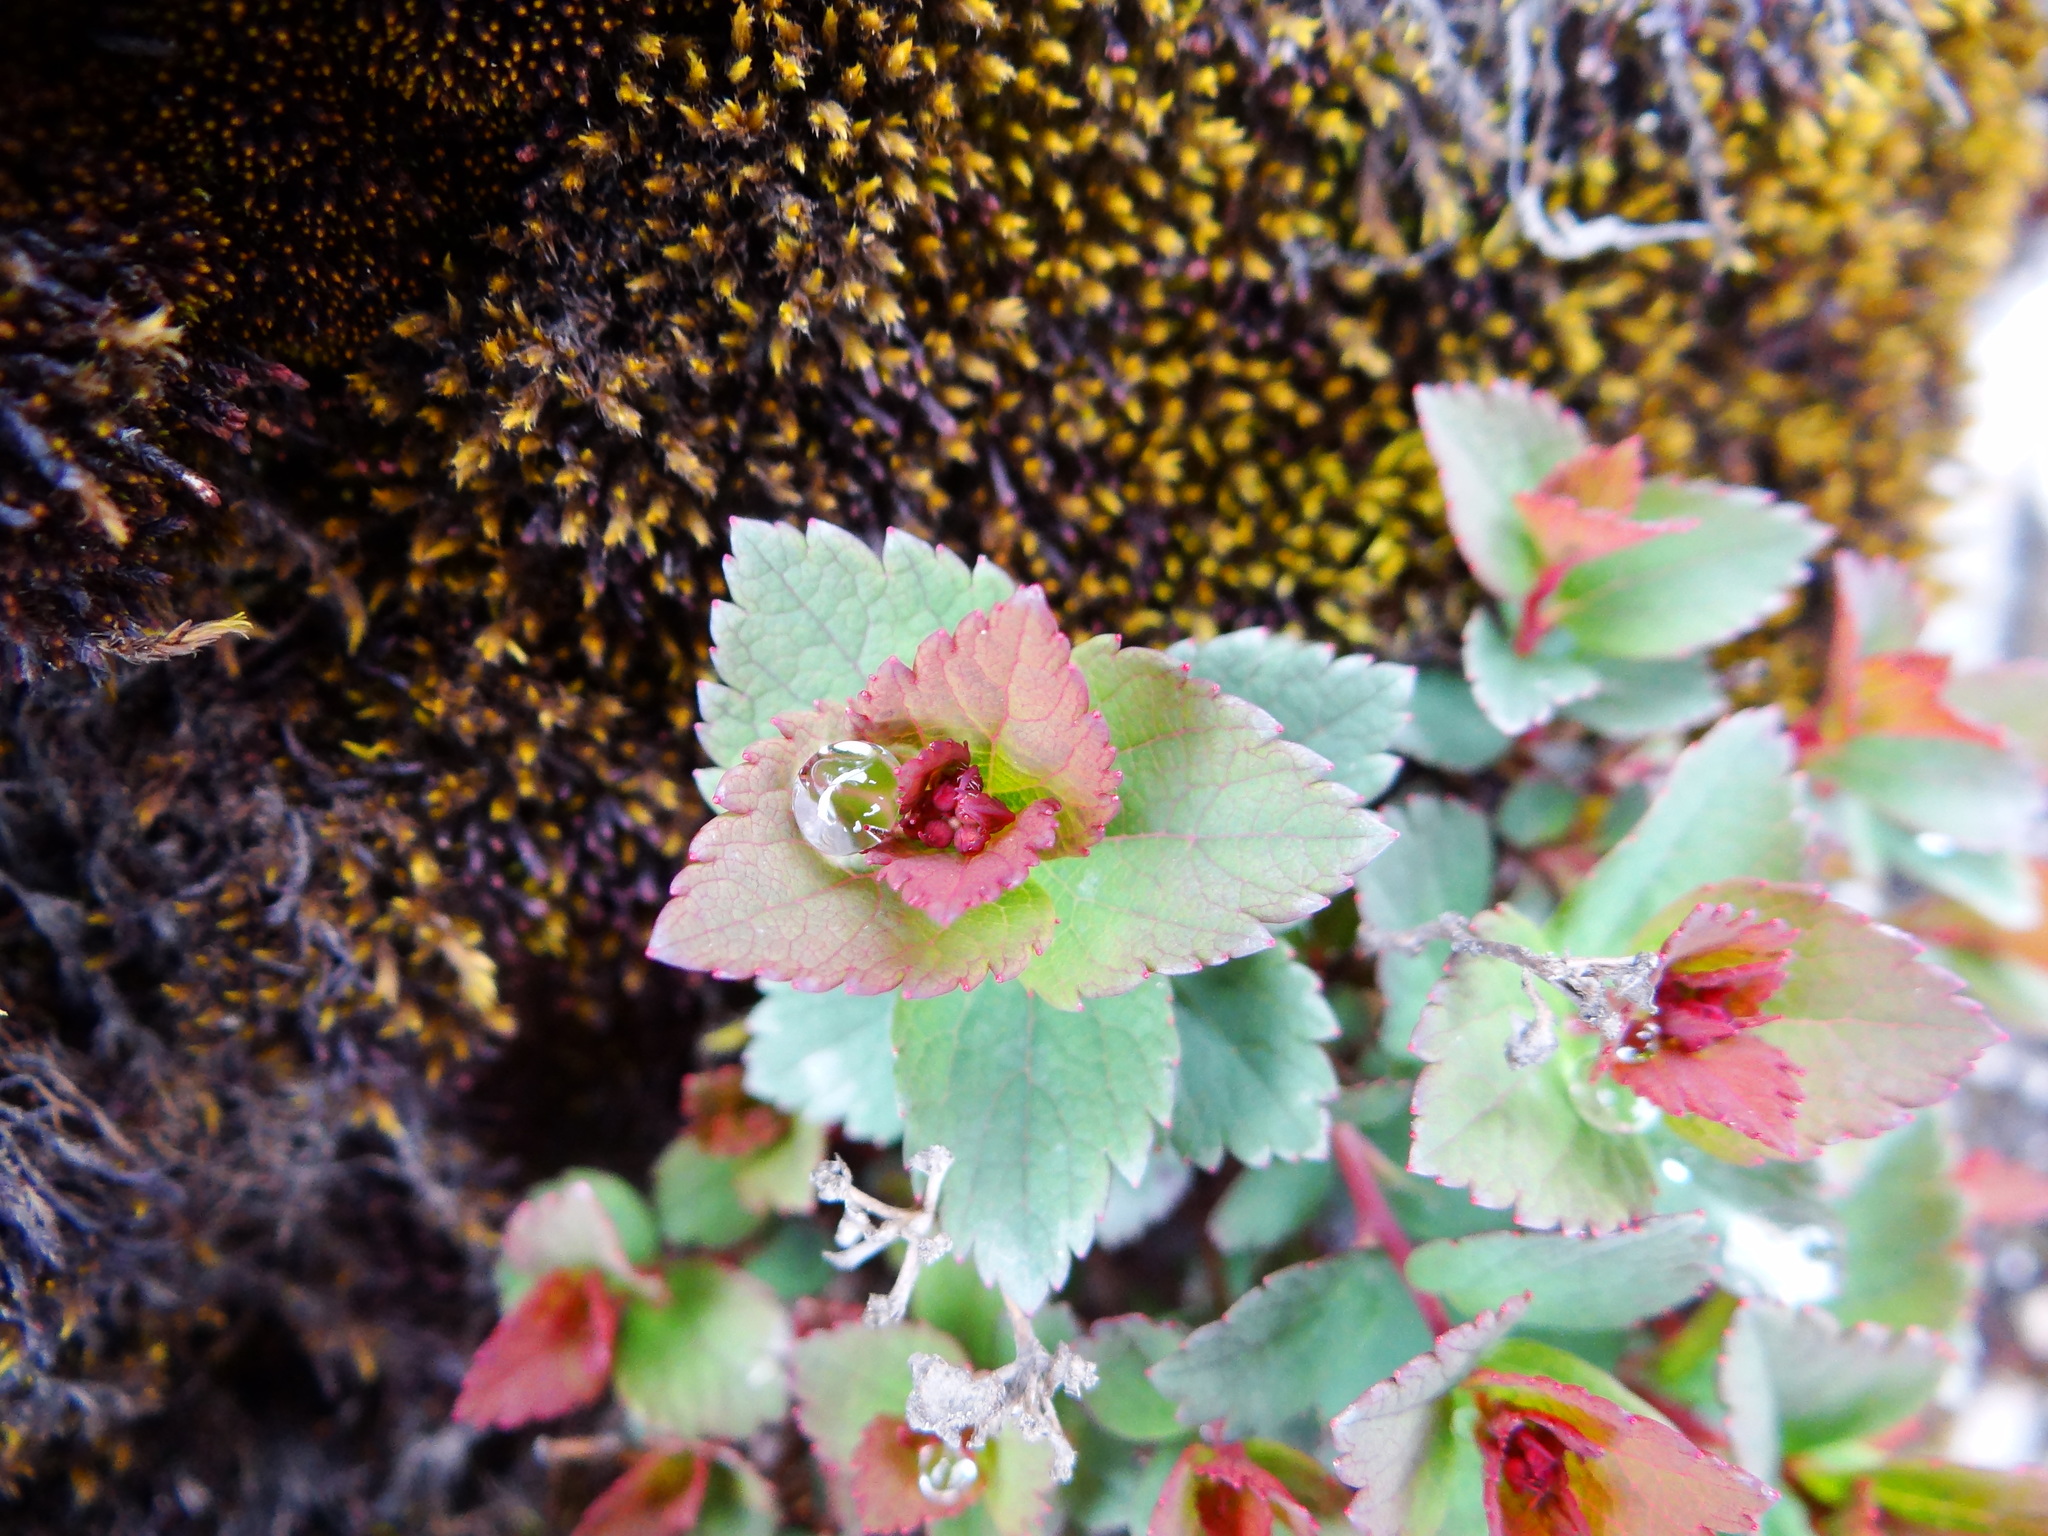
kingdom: Plantae
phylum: Tracheophyta
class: Magnoliopsida
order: Rosales
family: Rosaceae
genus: Spiraea
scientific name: Spiraea morrisonicola
